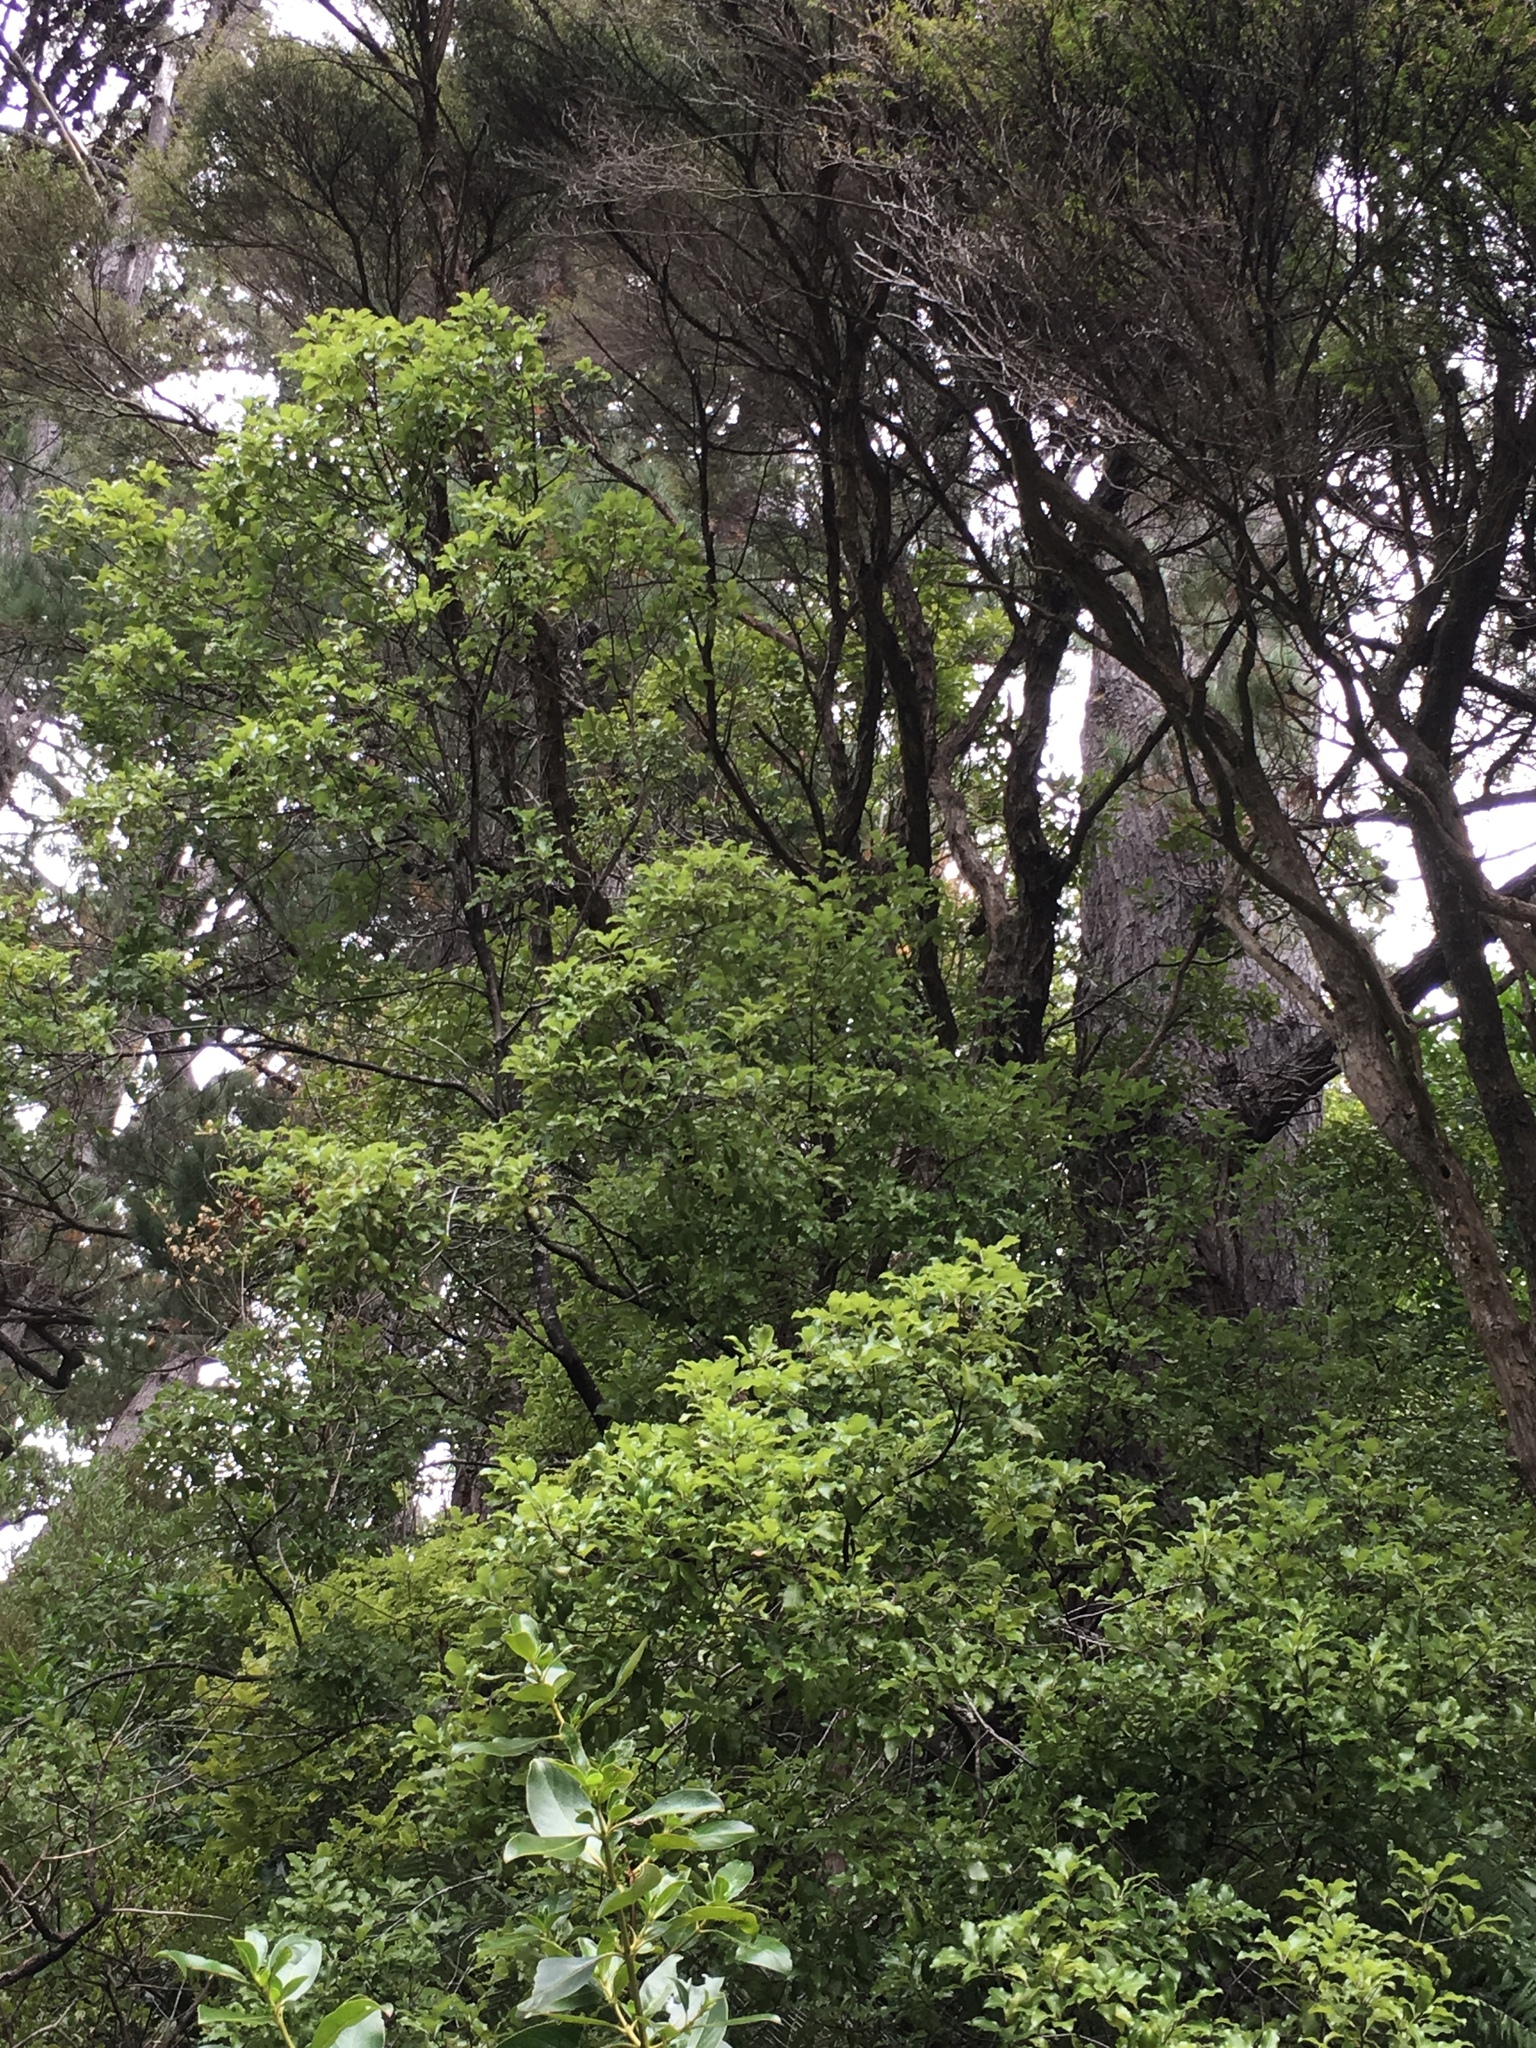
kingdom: Plantae
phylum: Tracheophyta
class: Magnoliopsida
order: Apiales
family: Pittosporaceae
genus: Pittosporum
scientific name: Pittosporum tenuifolium
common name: Kohuhu
